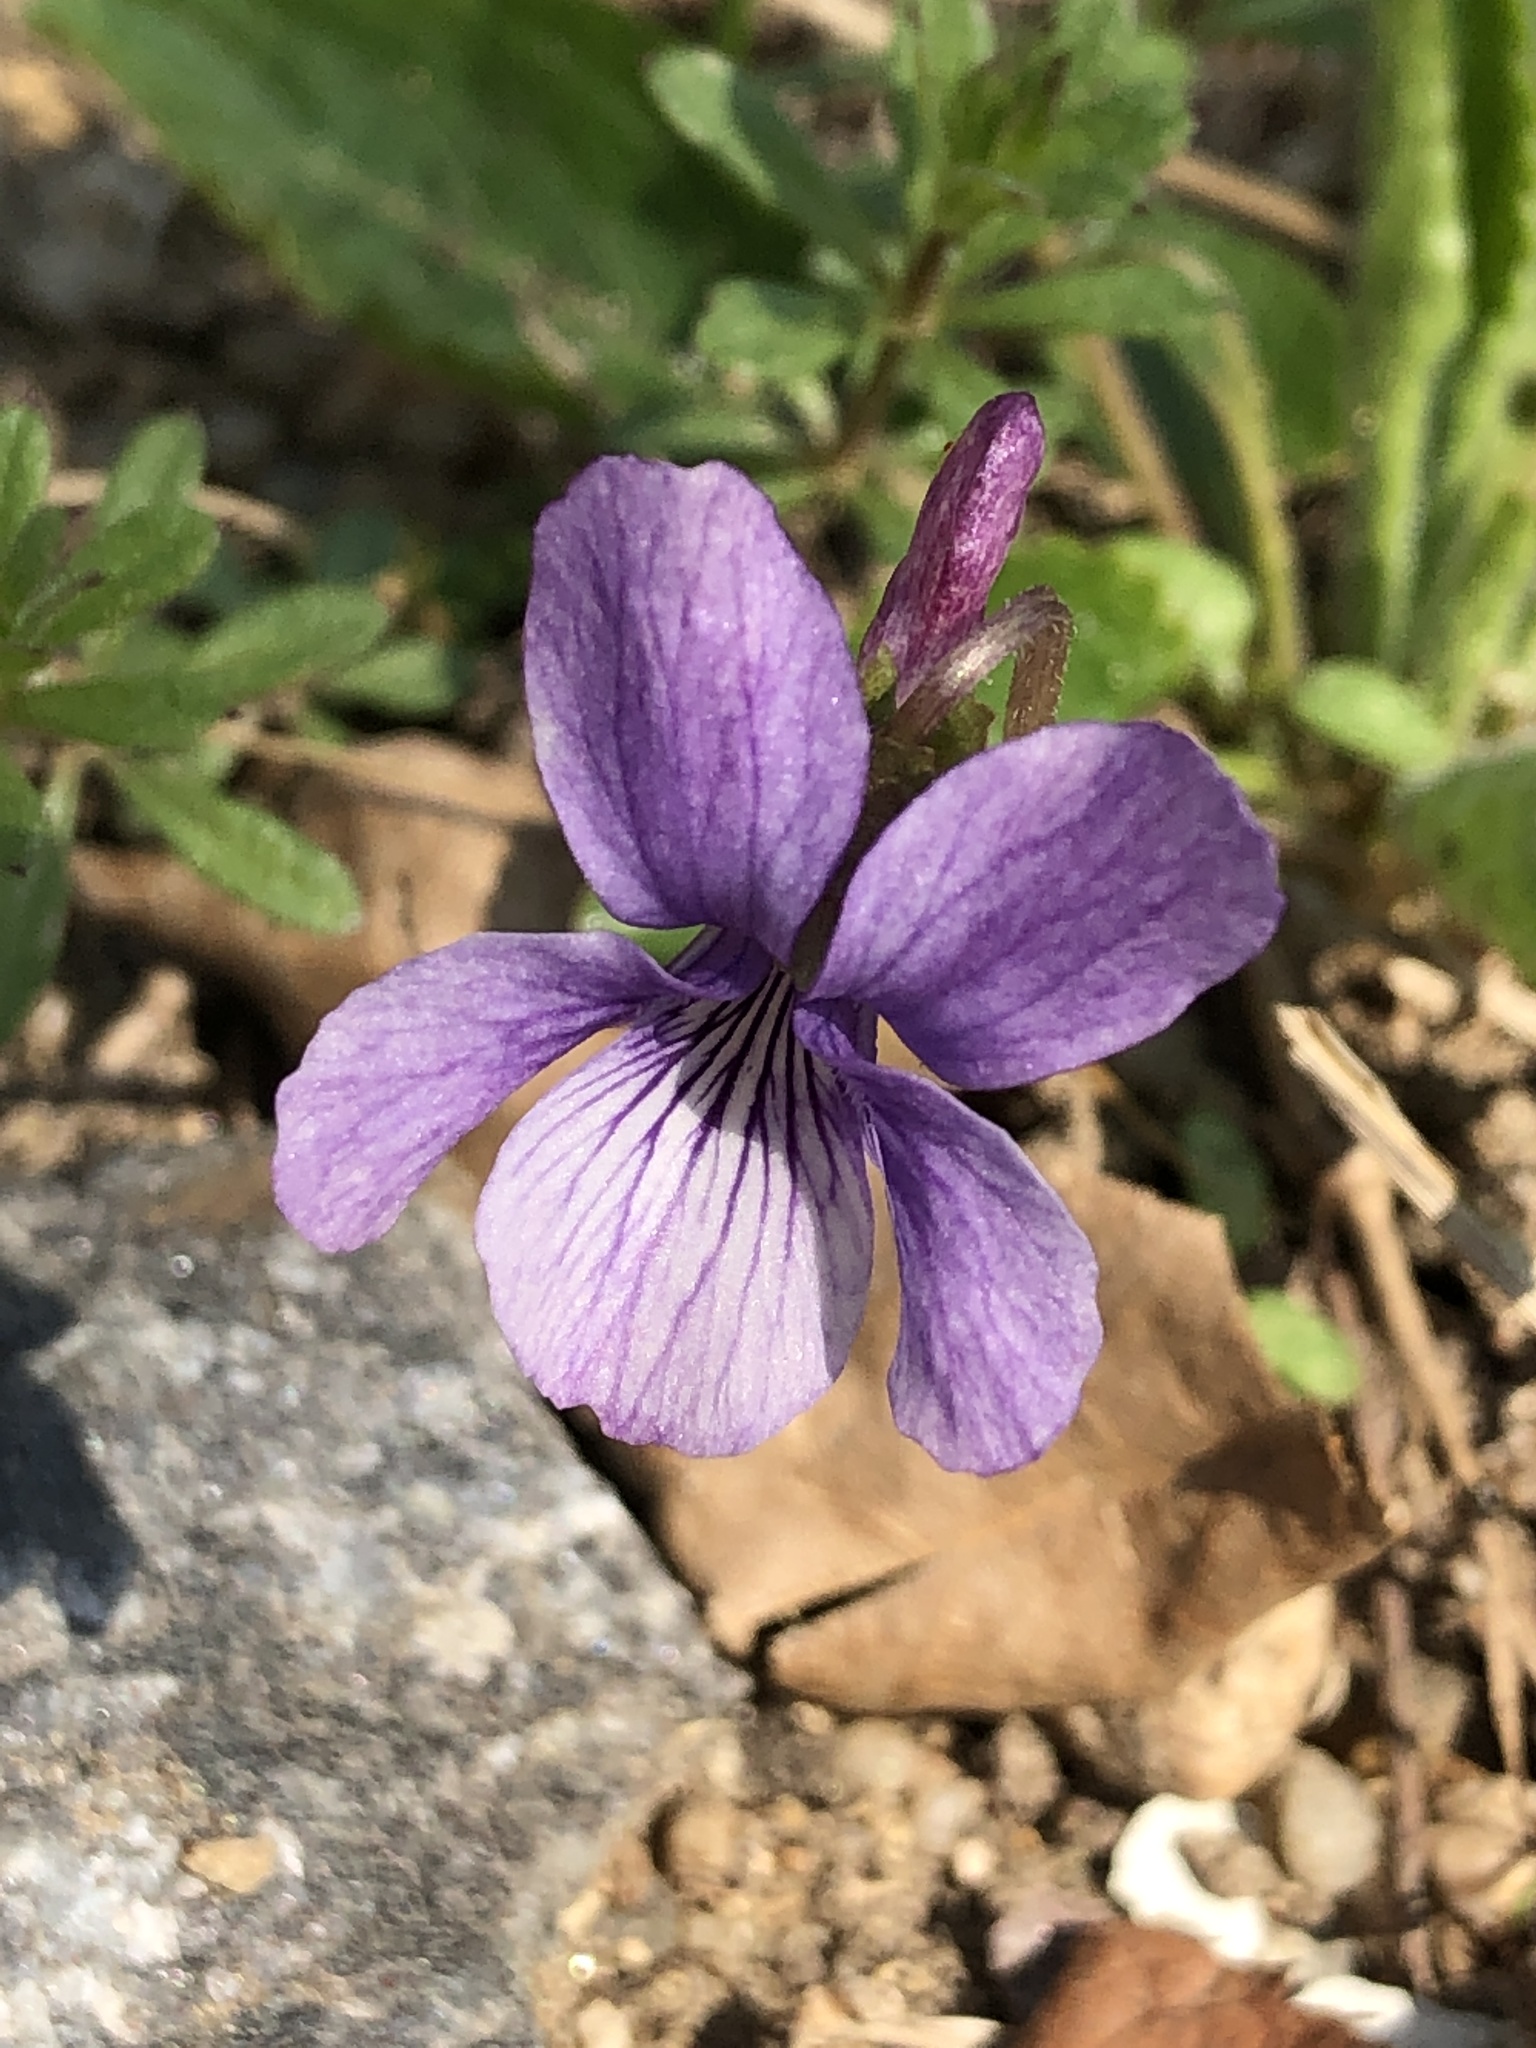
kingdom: Plantae
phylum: Tracheophyta
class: Magnoliopsida
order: Malpighiales
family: Violaceae
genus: Viola
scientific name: Viola phalacrocarpa
